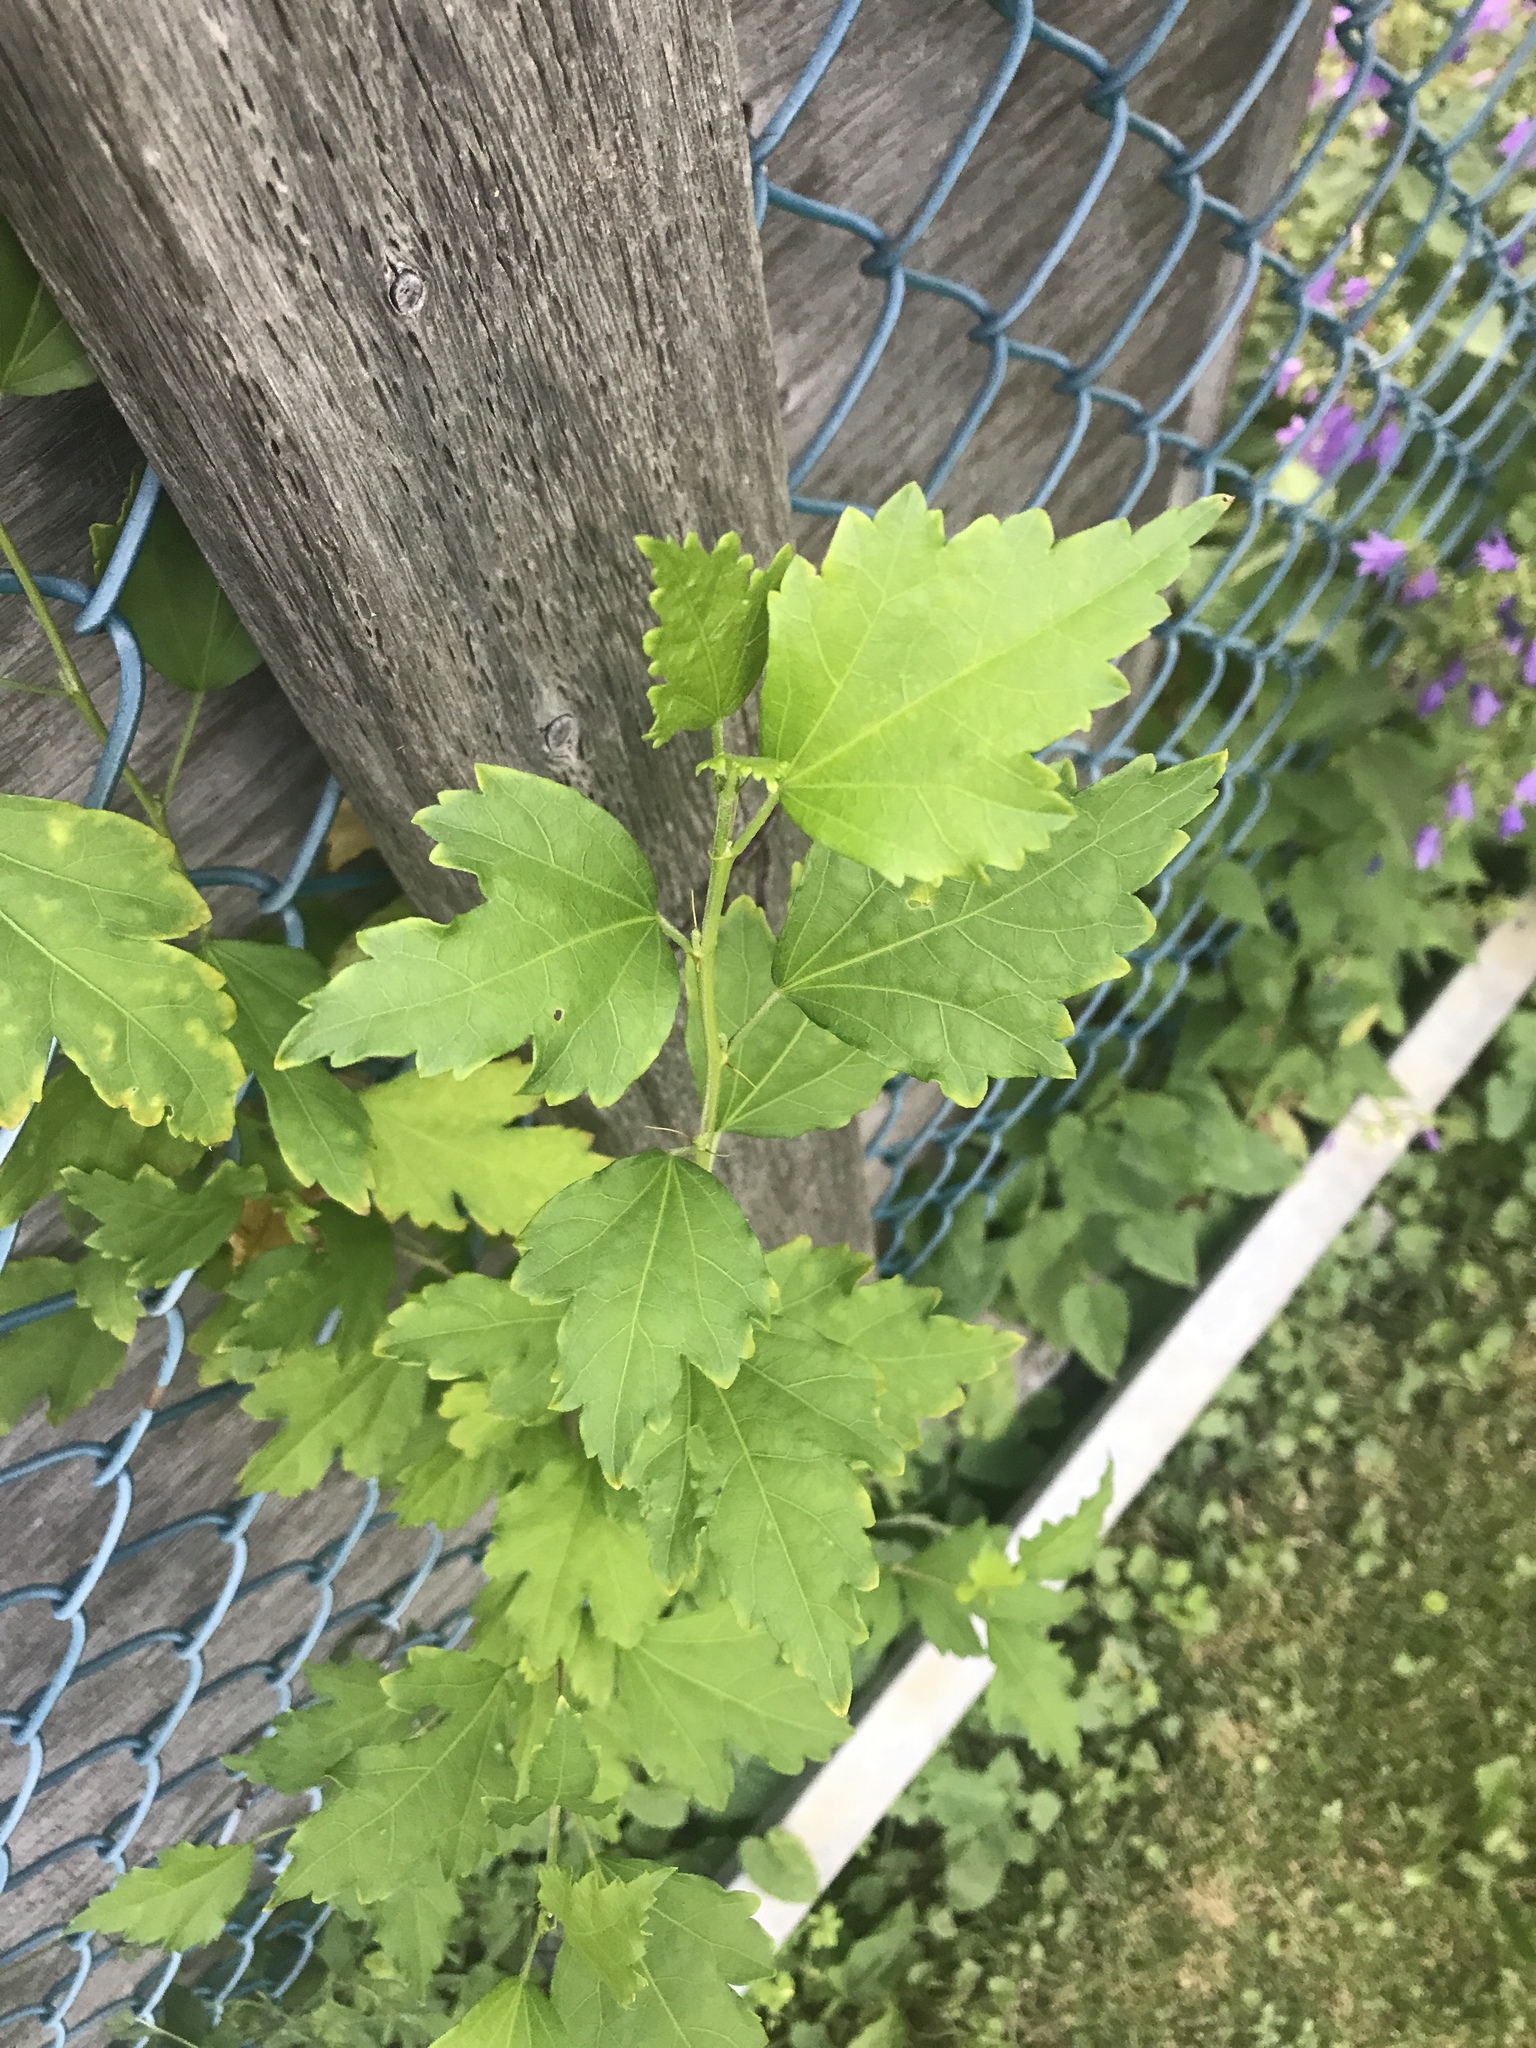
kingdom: Plantae
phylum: Tracheophyta
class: Magnoliopsida
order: Malvales
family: Malvaceae
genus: Hibiscus
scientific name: Hibiscus syriacus
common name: Syrian ketmia
